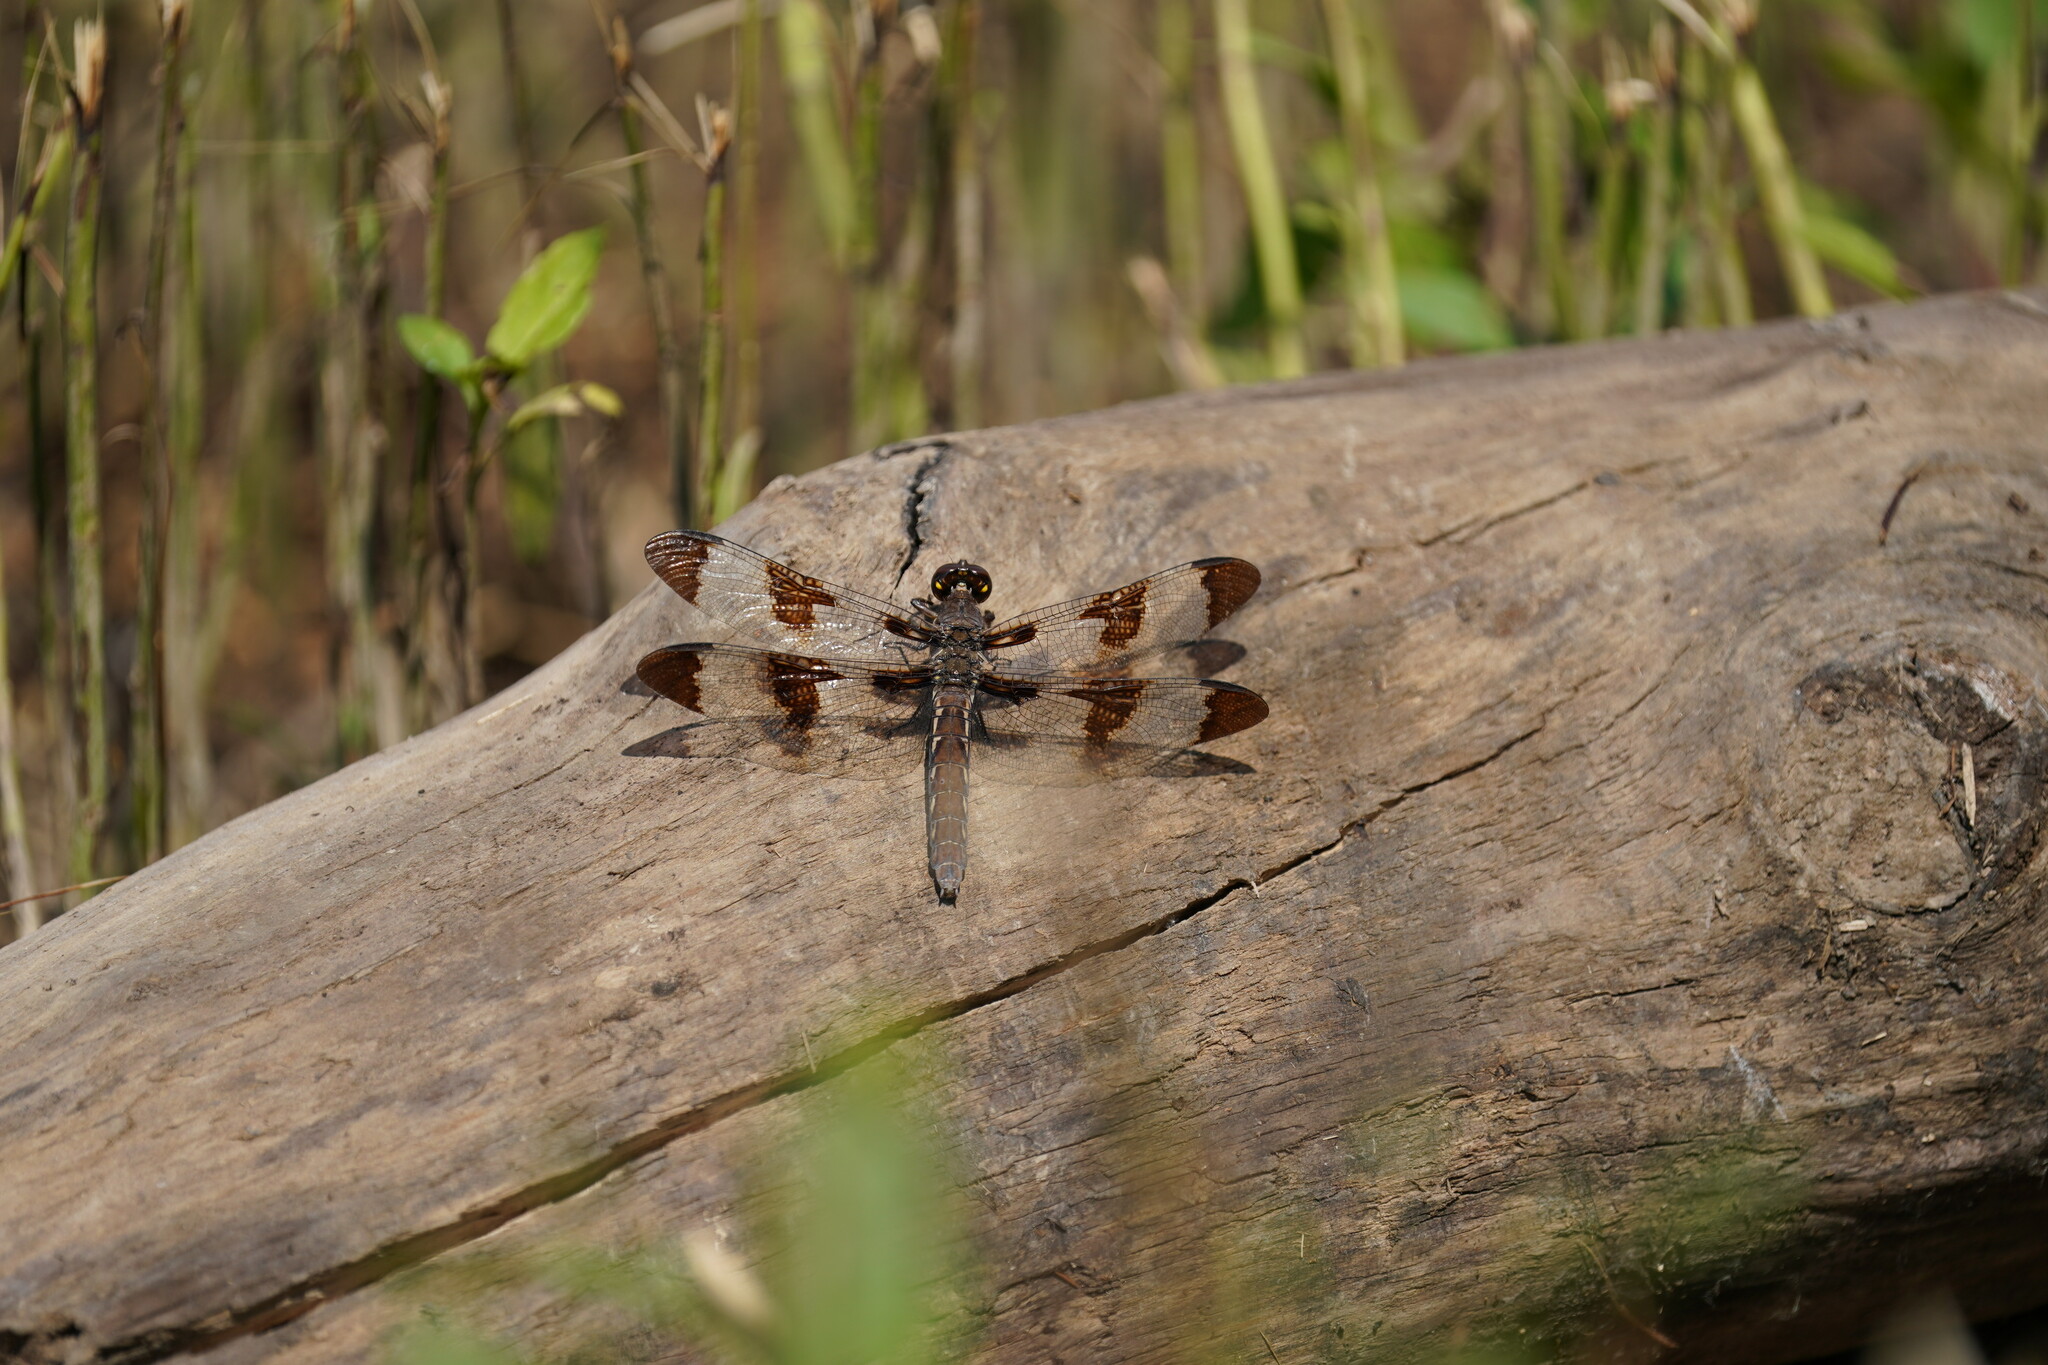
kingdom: Animalia
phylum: Arthropoda
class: Insecta
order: Odonata
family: Libellulidae
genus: Plathemis
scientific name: Plathemis lydia
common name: Common whitetail
